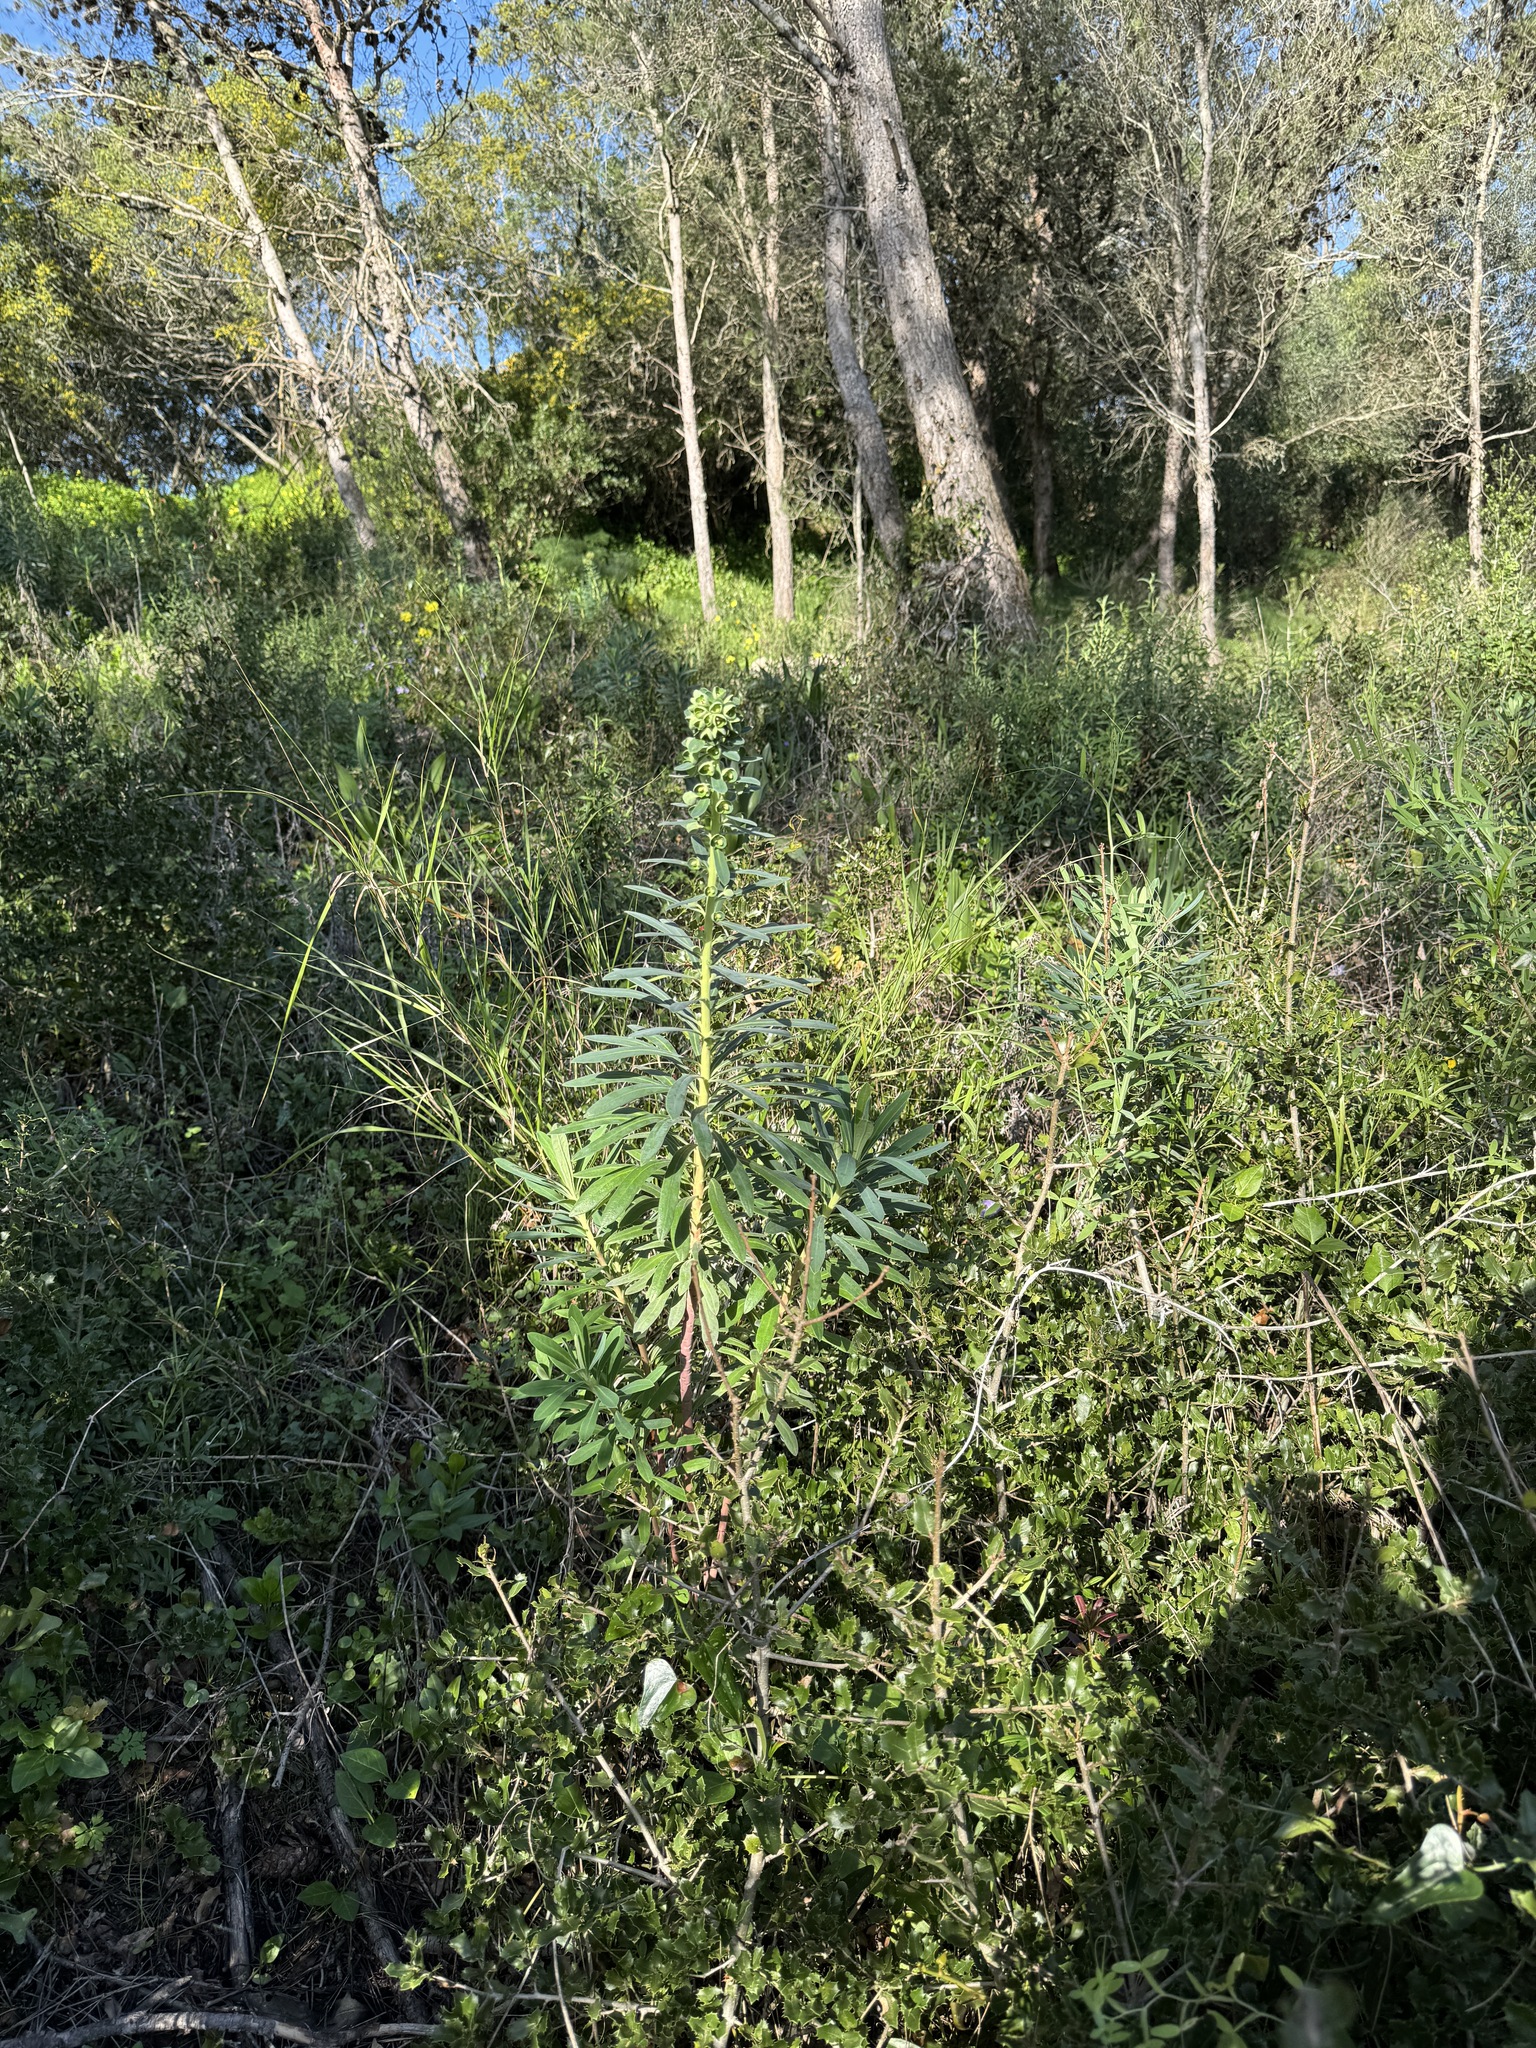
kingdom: Plantae
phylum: Tracheophyta
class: Magnoliopsida
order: Malpighiales
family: Euphorbiaceae
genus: Euphorbia
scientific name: Euphorbia characias
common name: Mediterranean spurge
